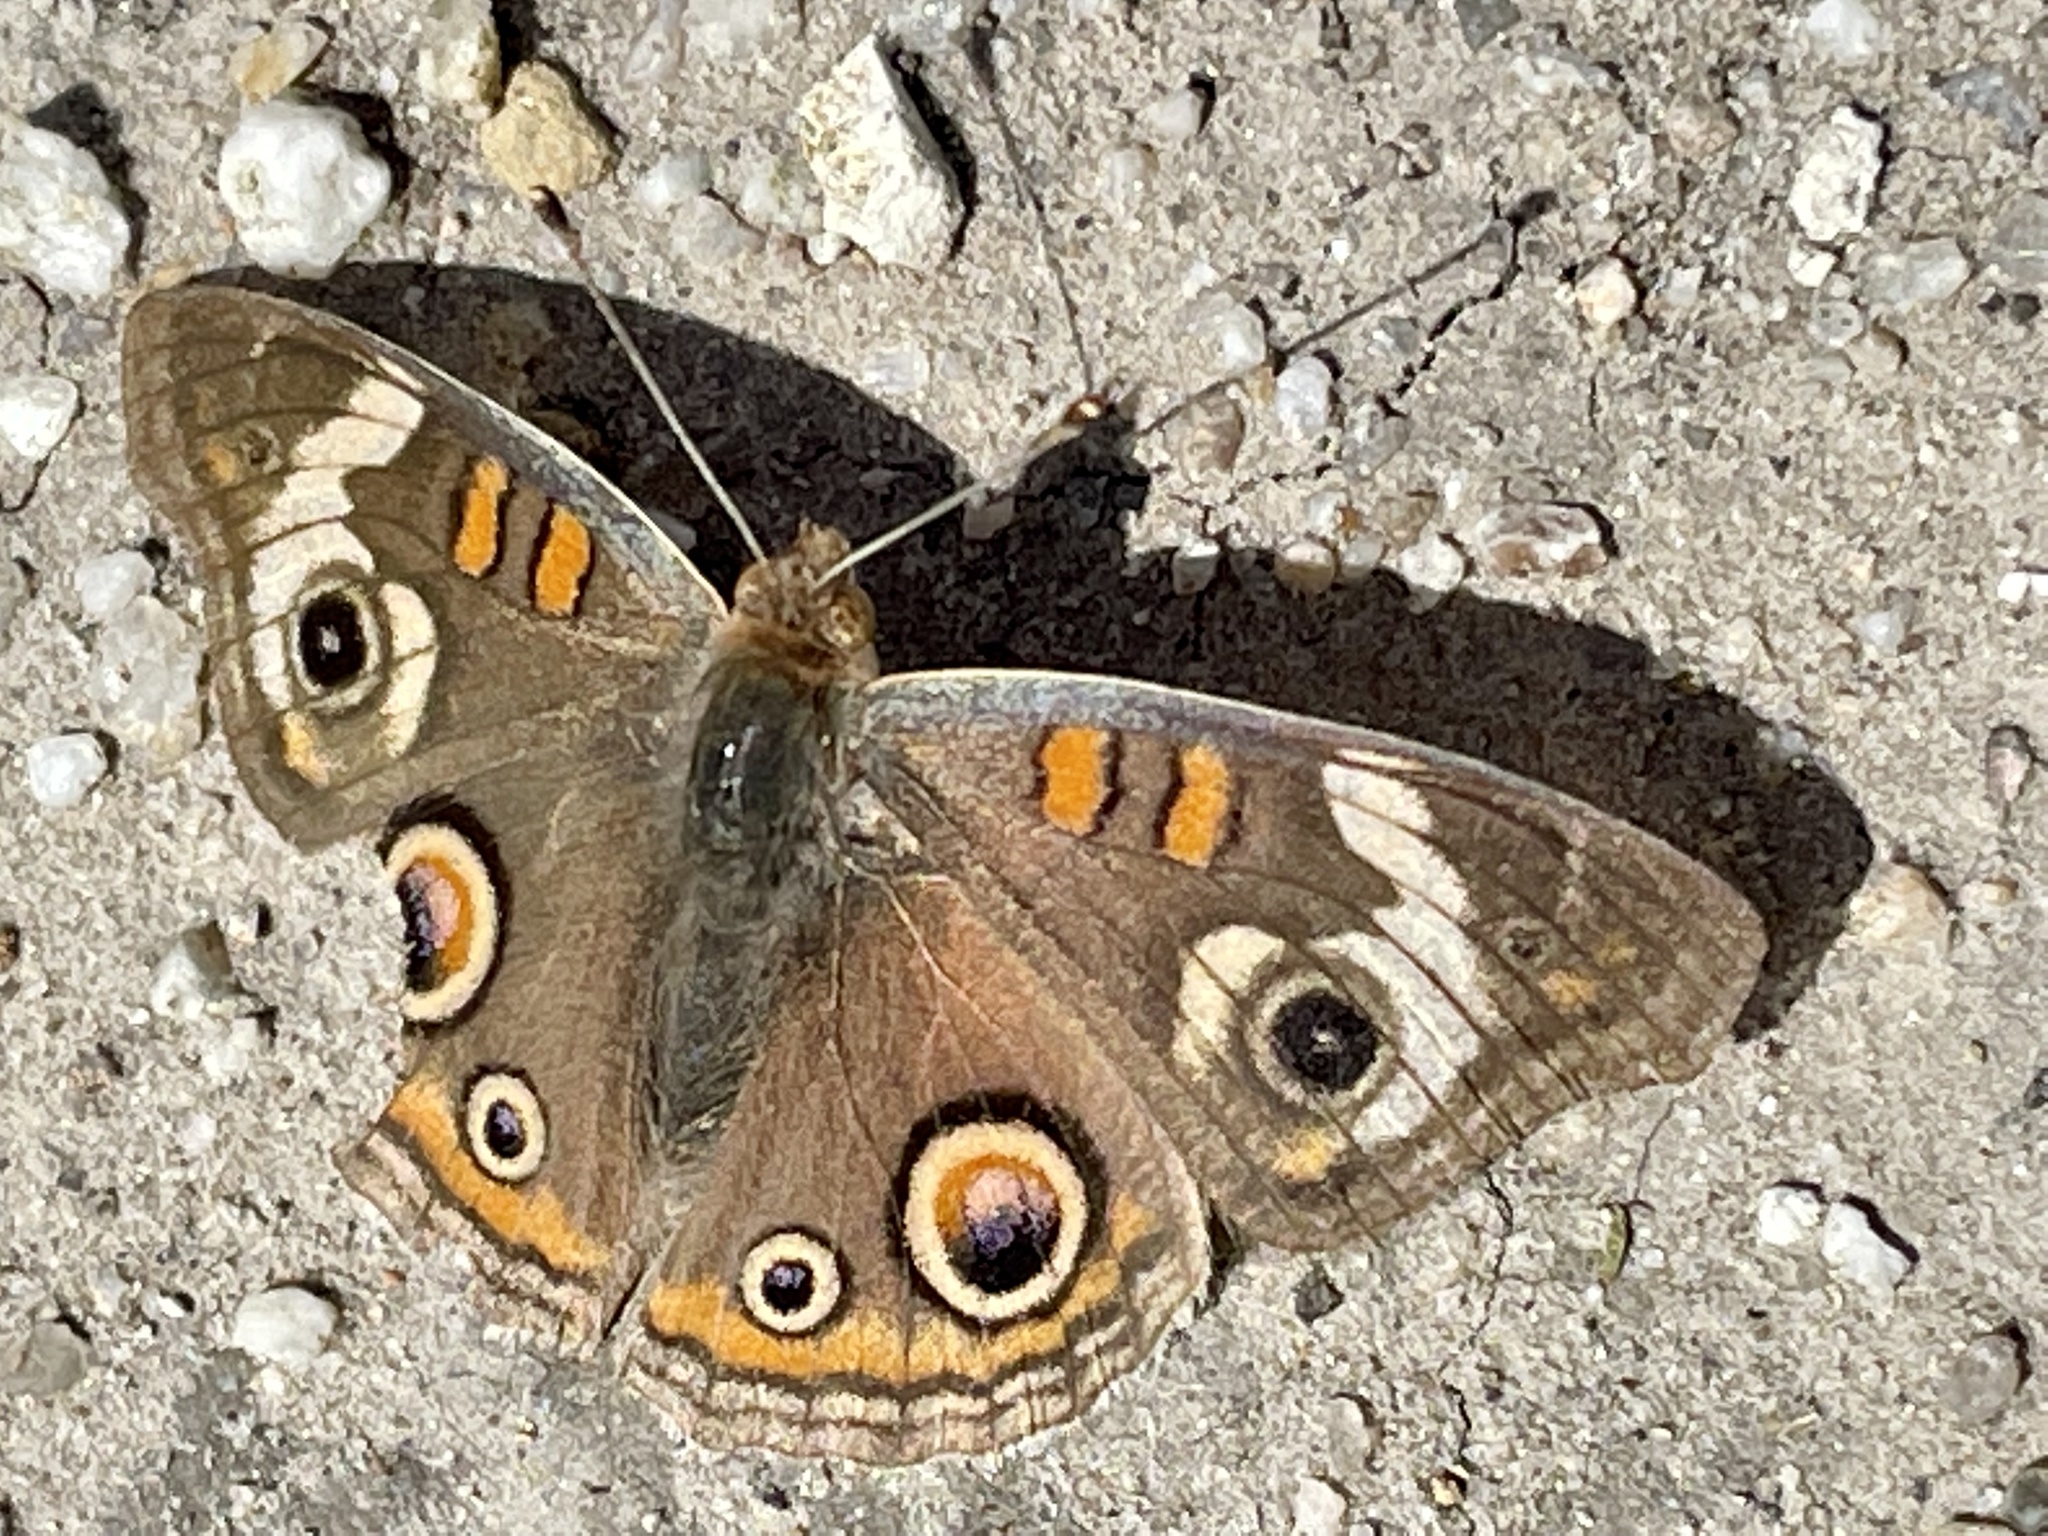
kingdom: Animalia
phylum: Arthropoda
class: Insecta
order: Lepidoptera
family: Nymphalidae
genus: Junonia
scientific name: Junonia grisea
